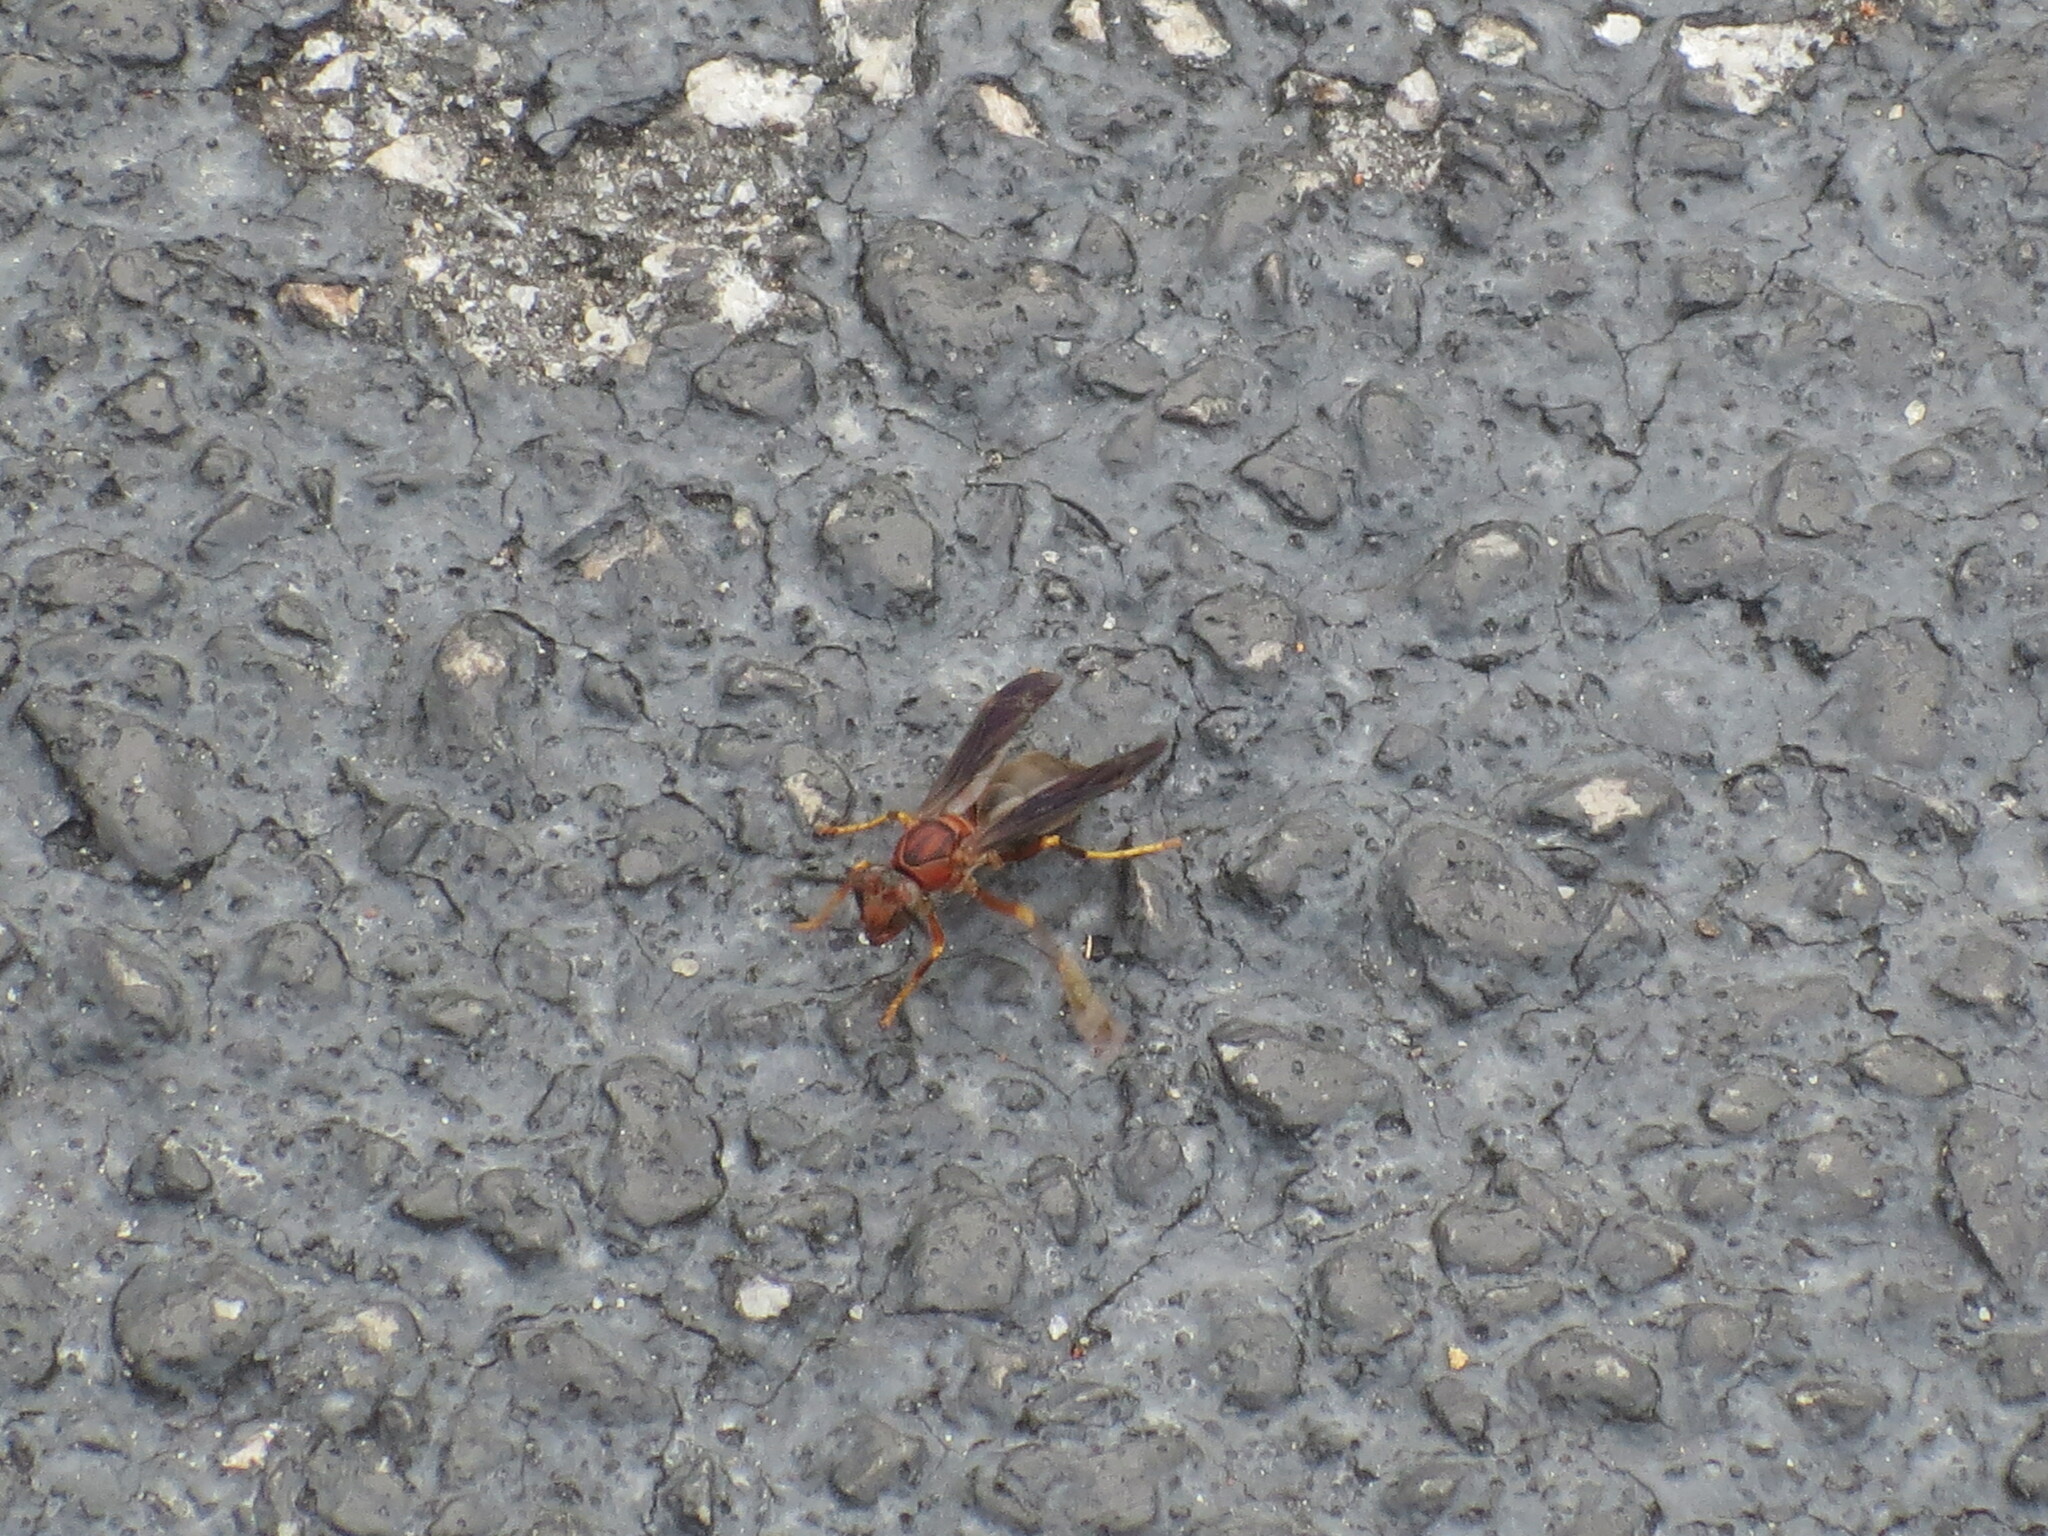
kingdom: Animalia
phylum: Arthropoda
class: Insecta
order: Hymenoptera
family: Eumenidae
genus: Polistes
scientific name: Polistes metricus
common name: Metric paper wasp
